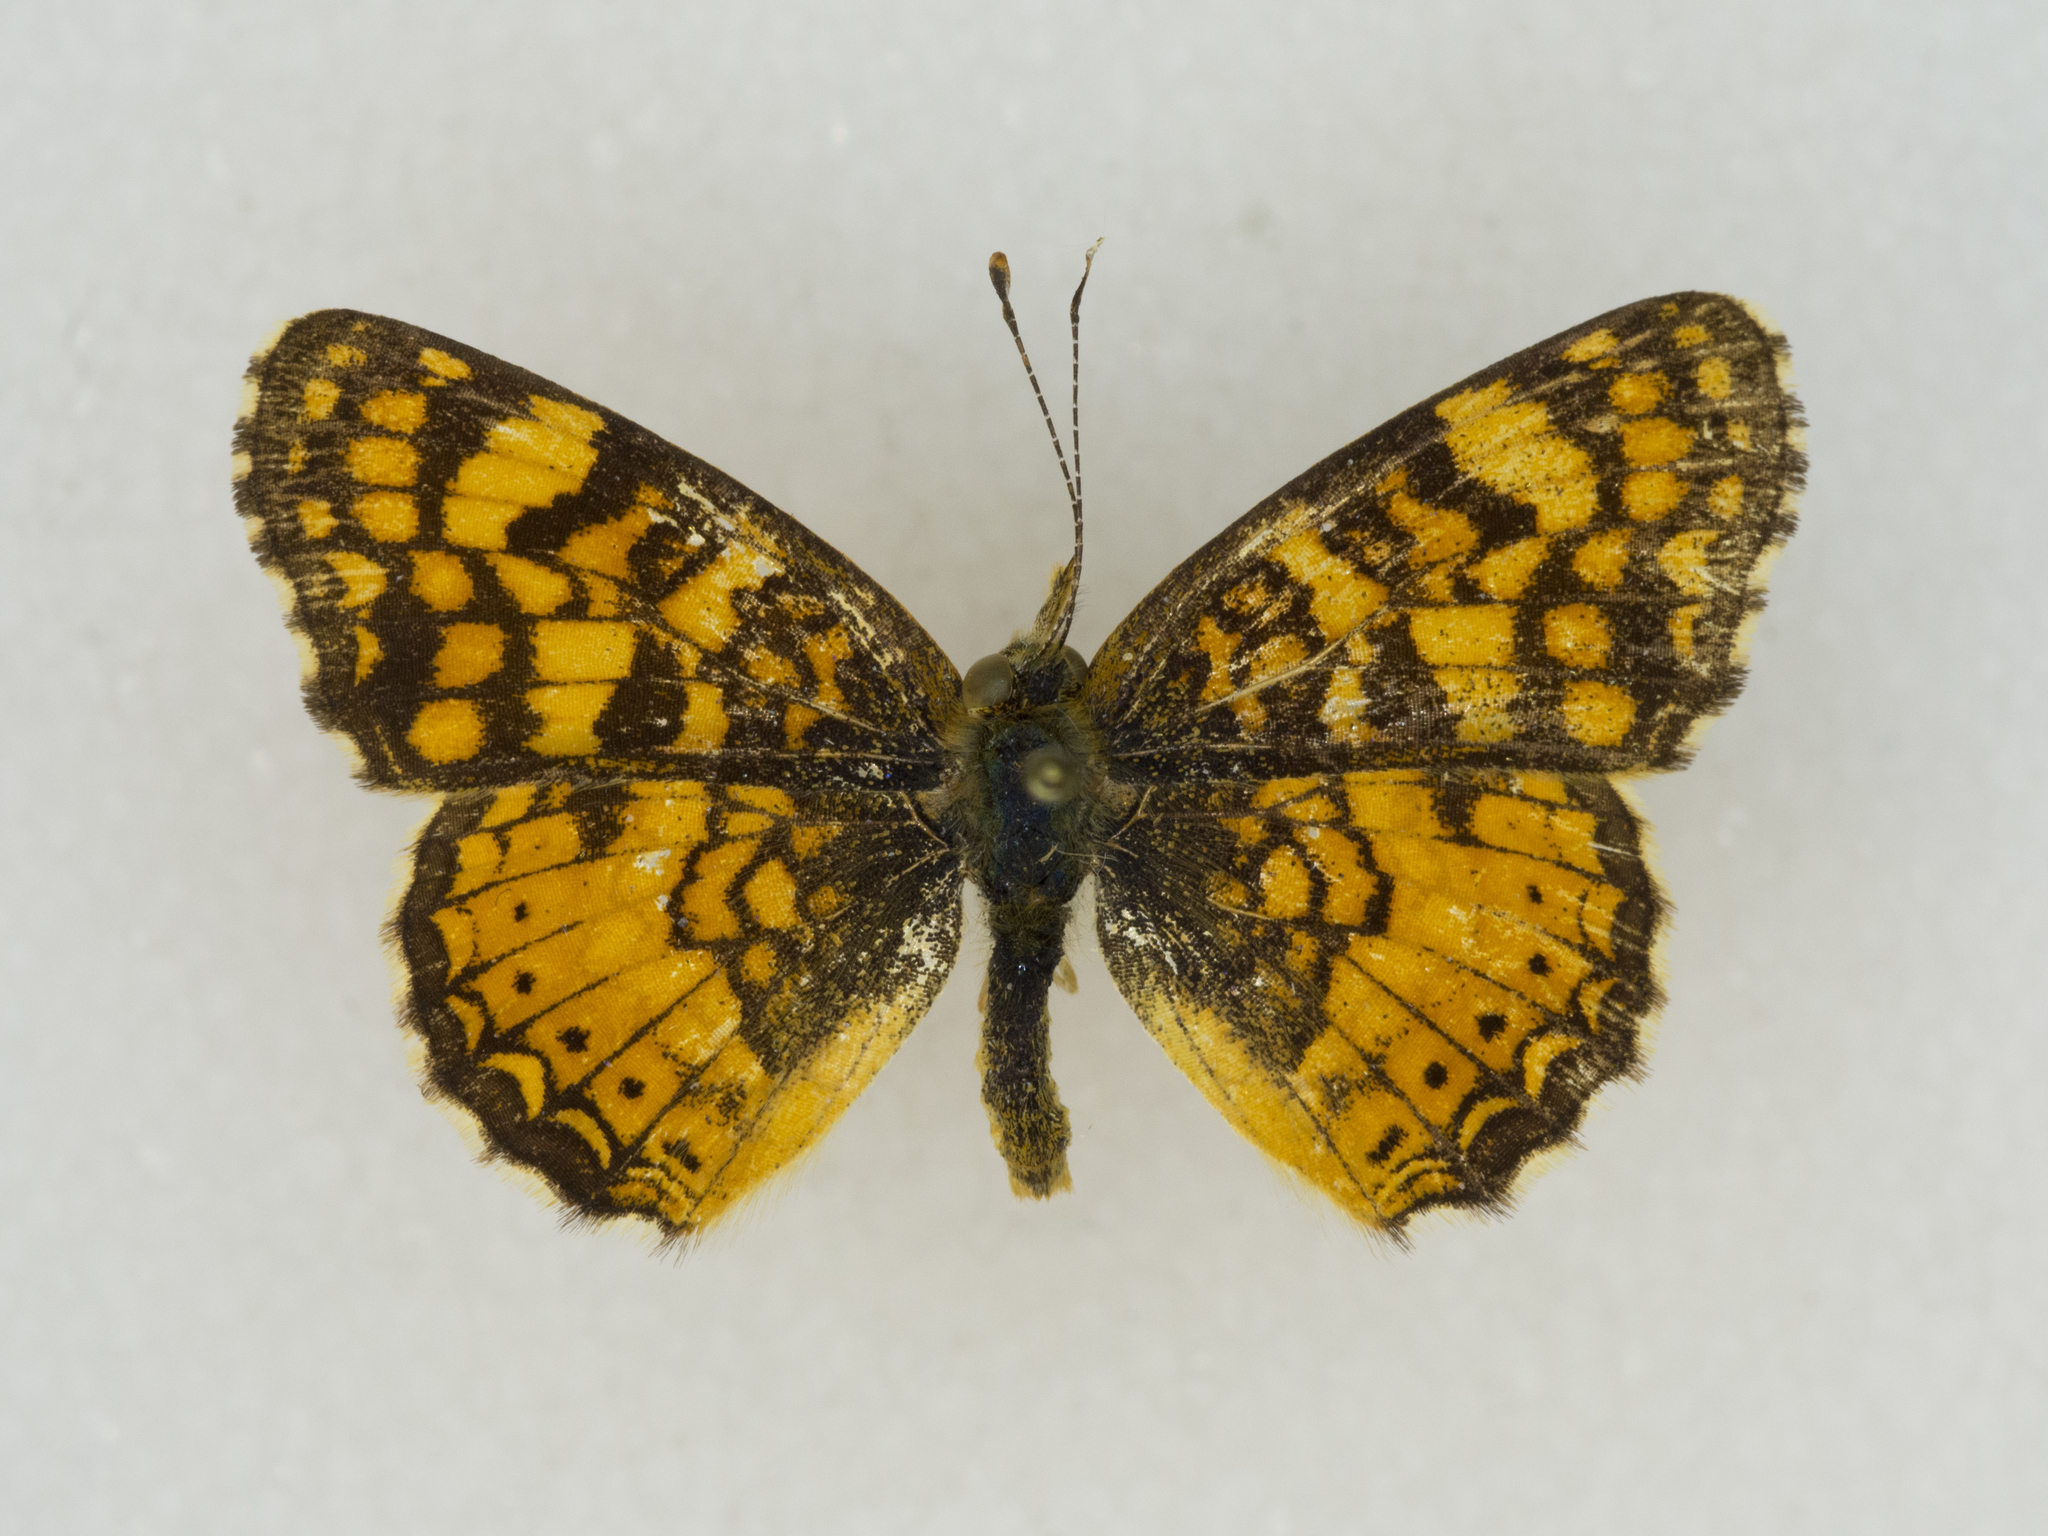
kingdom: Animalia
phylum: Arthropoda
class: Insecta
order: Lepidoptera
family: Nymphalidae
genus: Eresia
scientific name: Eresia aveyrona
